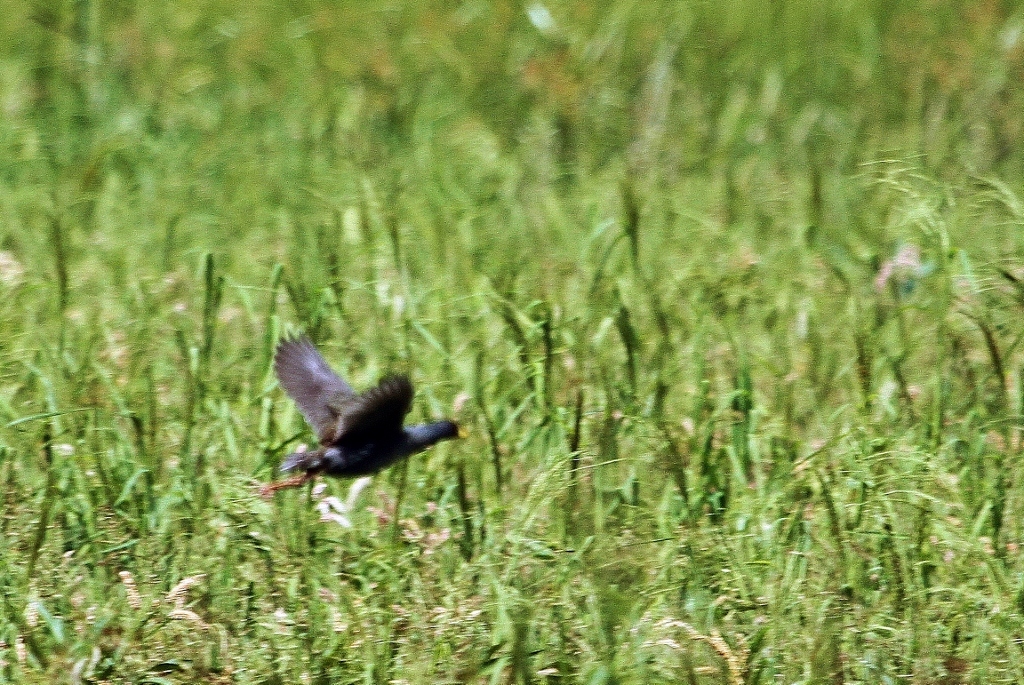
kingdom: Animalia
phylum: Chordata
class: Aves
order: Gruiformes
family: Rallidae
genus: Gallinula
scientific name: Gallinula angulata
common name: Lesser moorhen
